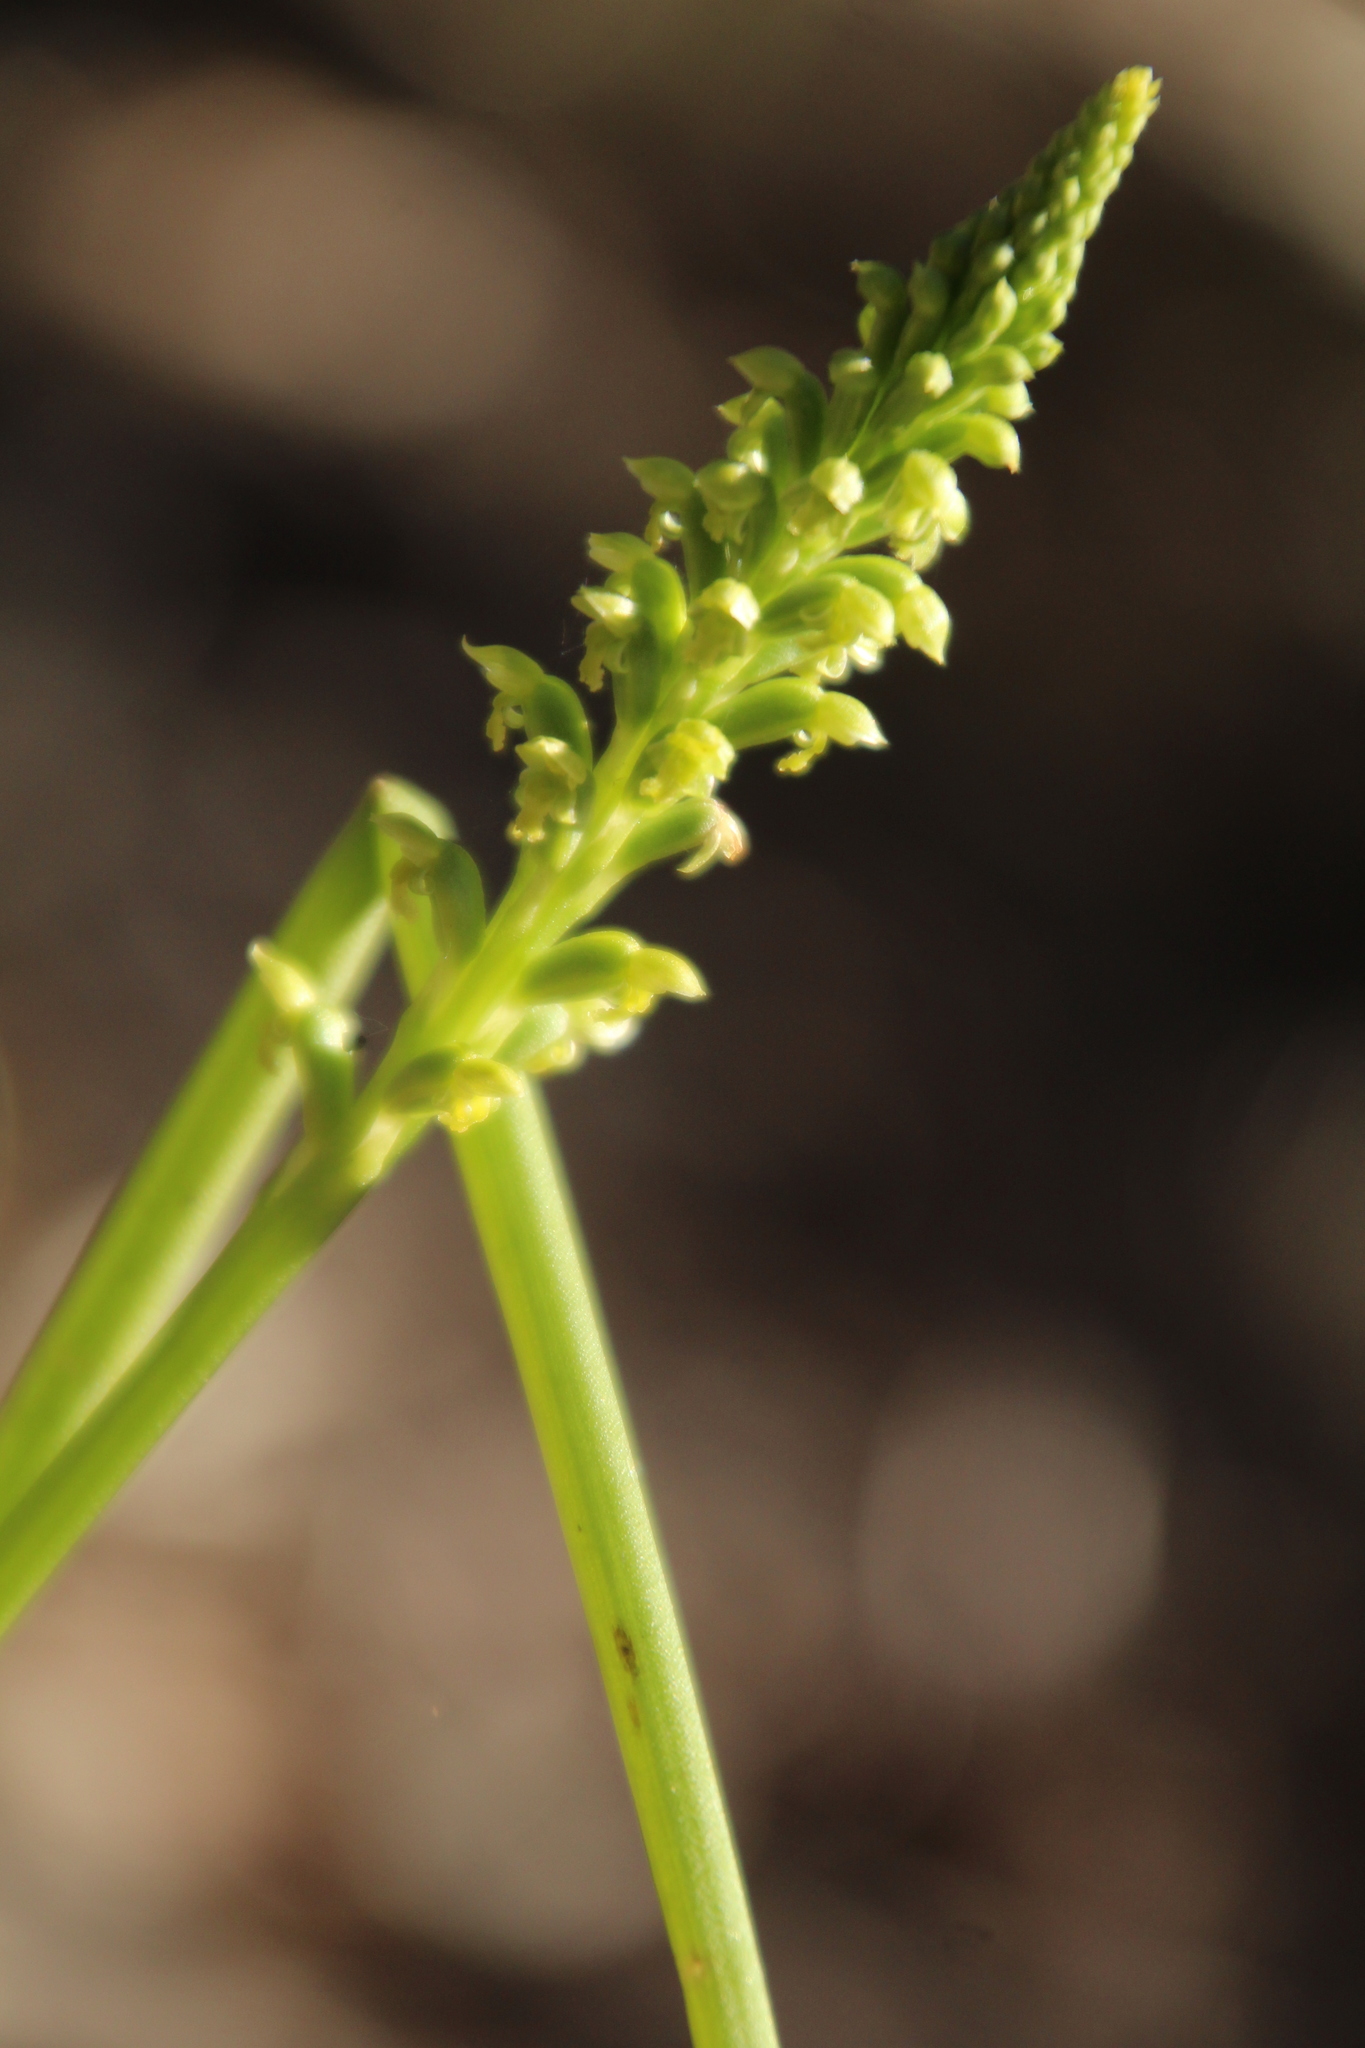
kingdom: Plantae
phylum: Tracheophyta
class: Liliopsida
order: Asparagales
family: Orchidaceae
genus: Microtis
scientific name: Microtis media
